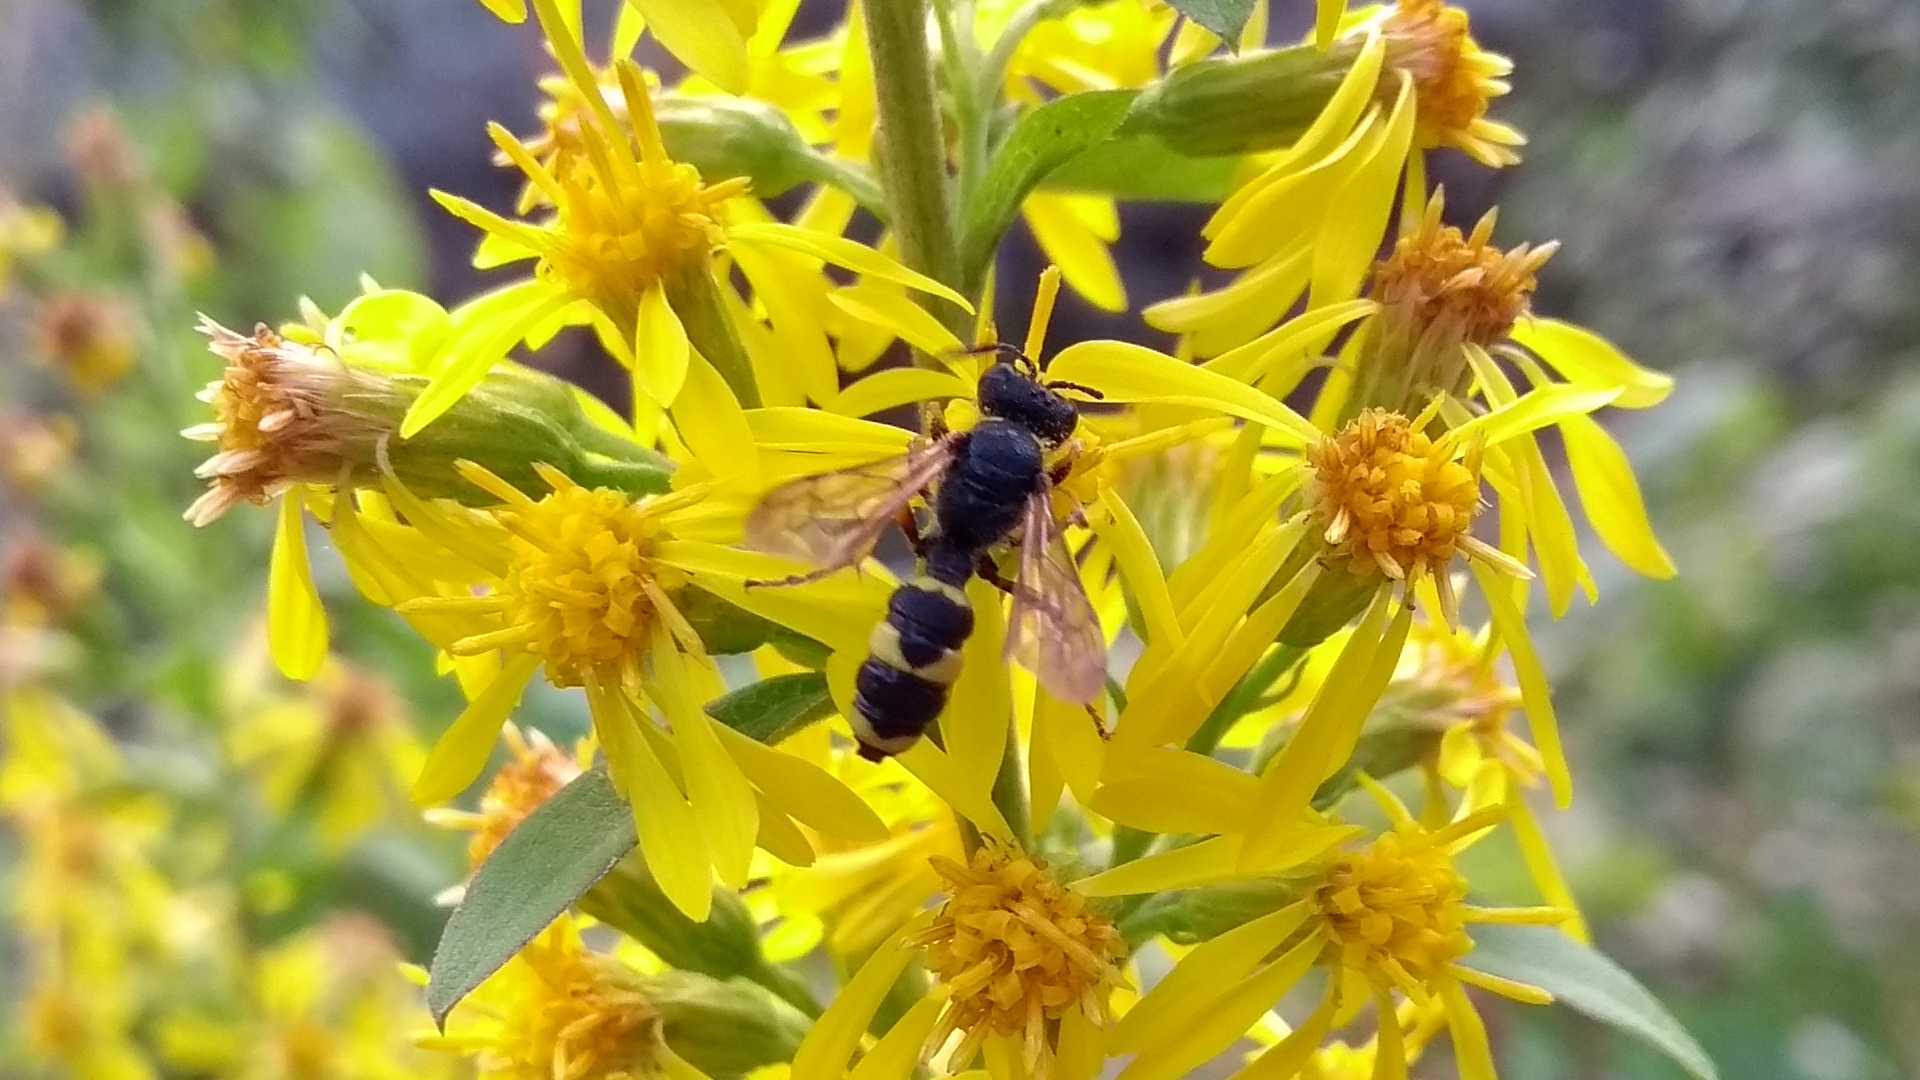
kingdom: Animalia
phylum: Arthropoda
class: Insecta
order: Hymenoptera
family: Crabronidae
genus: Cerceris
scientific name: Cerceris rybyensis
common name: Ornate tailed digger wasp
